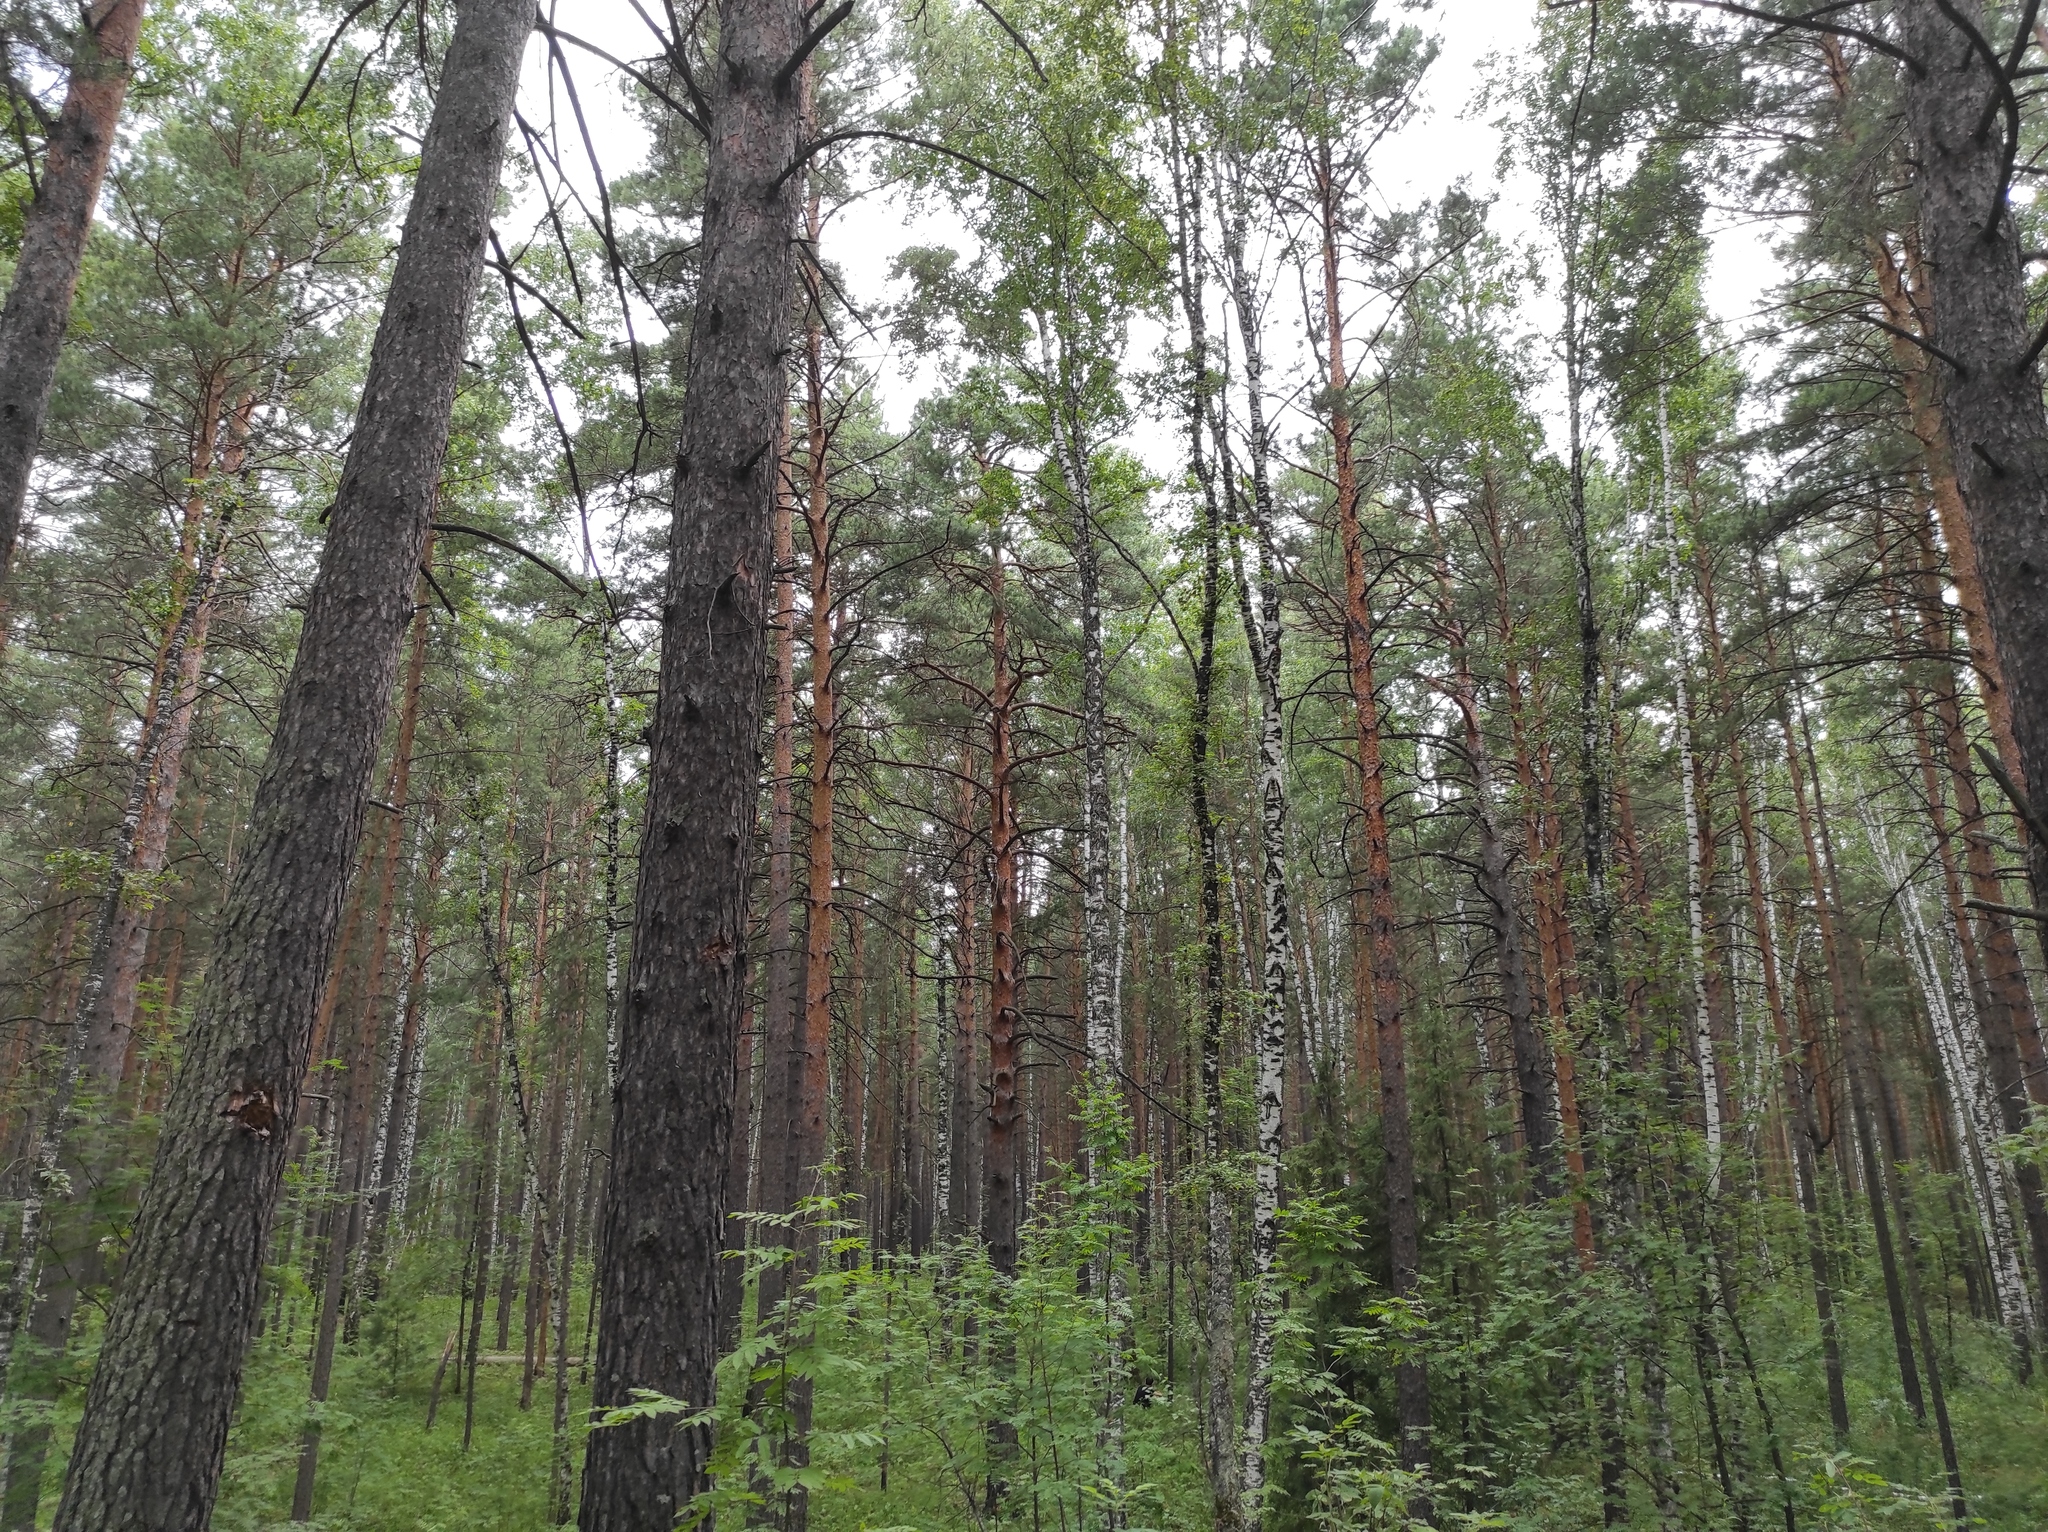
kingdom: Plantae
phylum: Tracheophyta
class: Pinopsida
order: Pinales
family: Pinaceae
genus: Pinus
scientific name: Pinus sylvestris
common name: Scots pine
